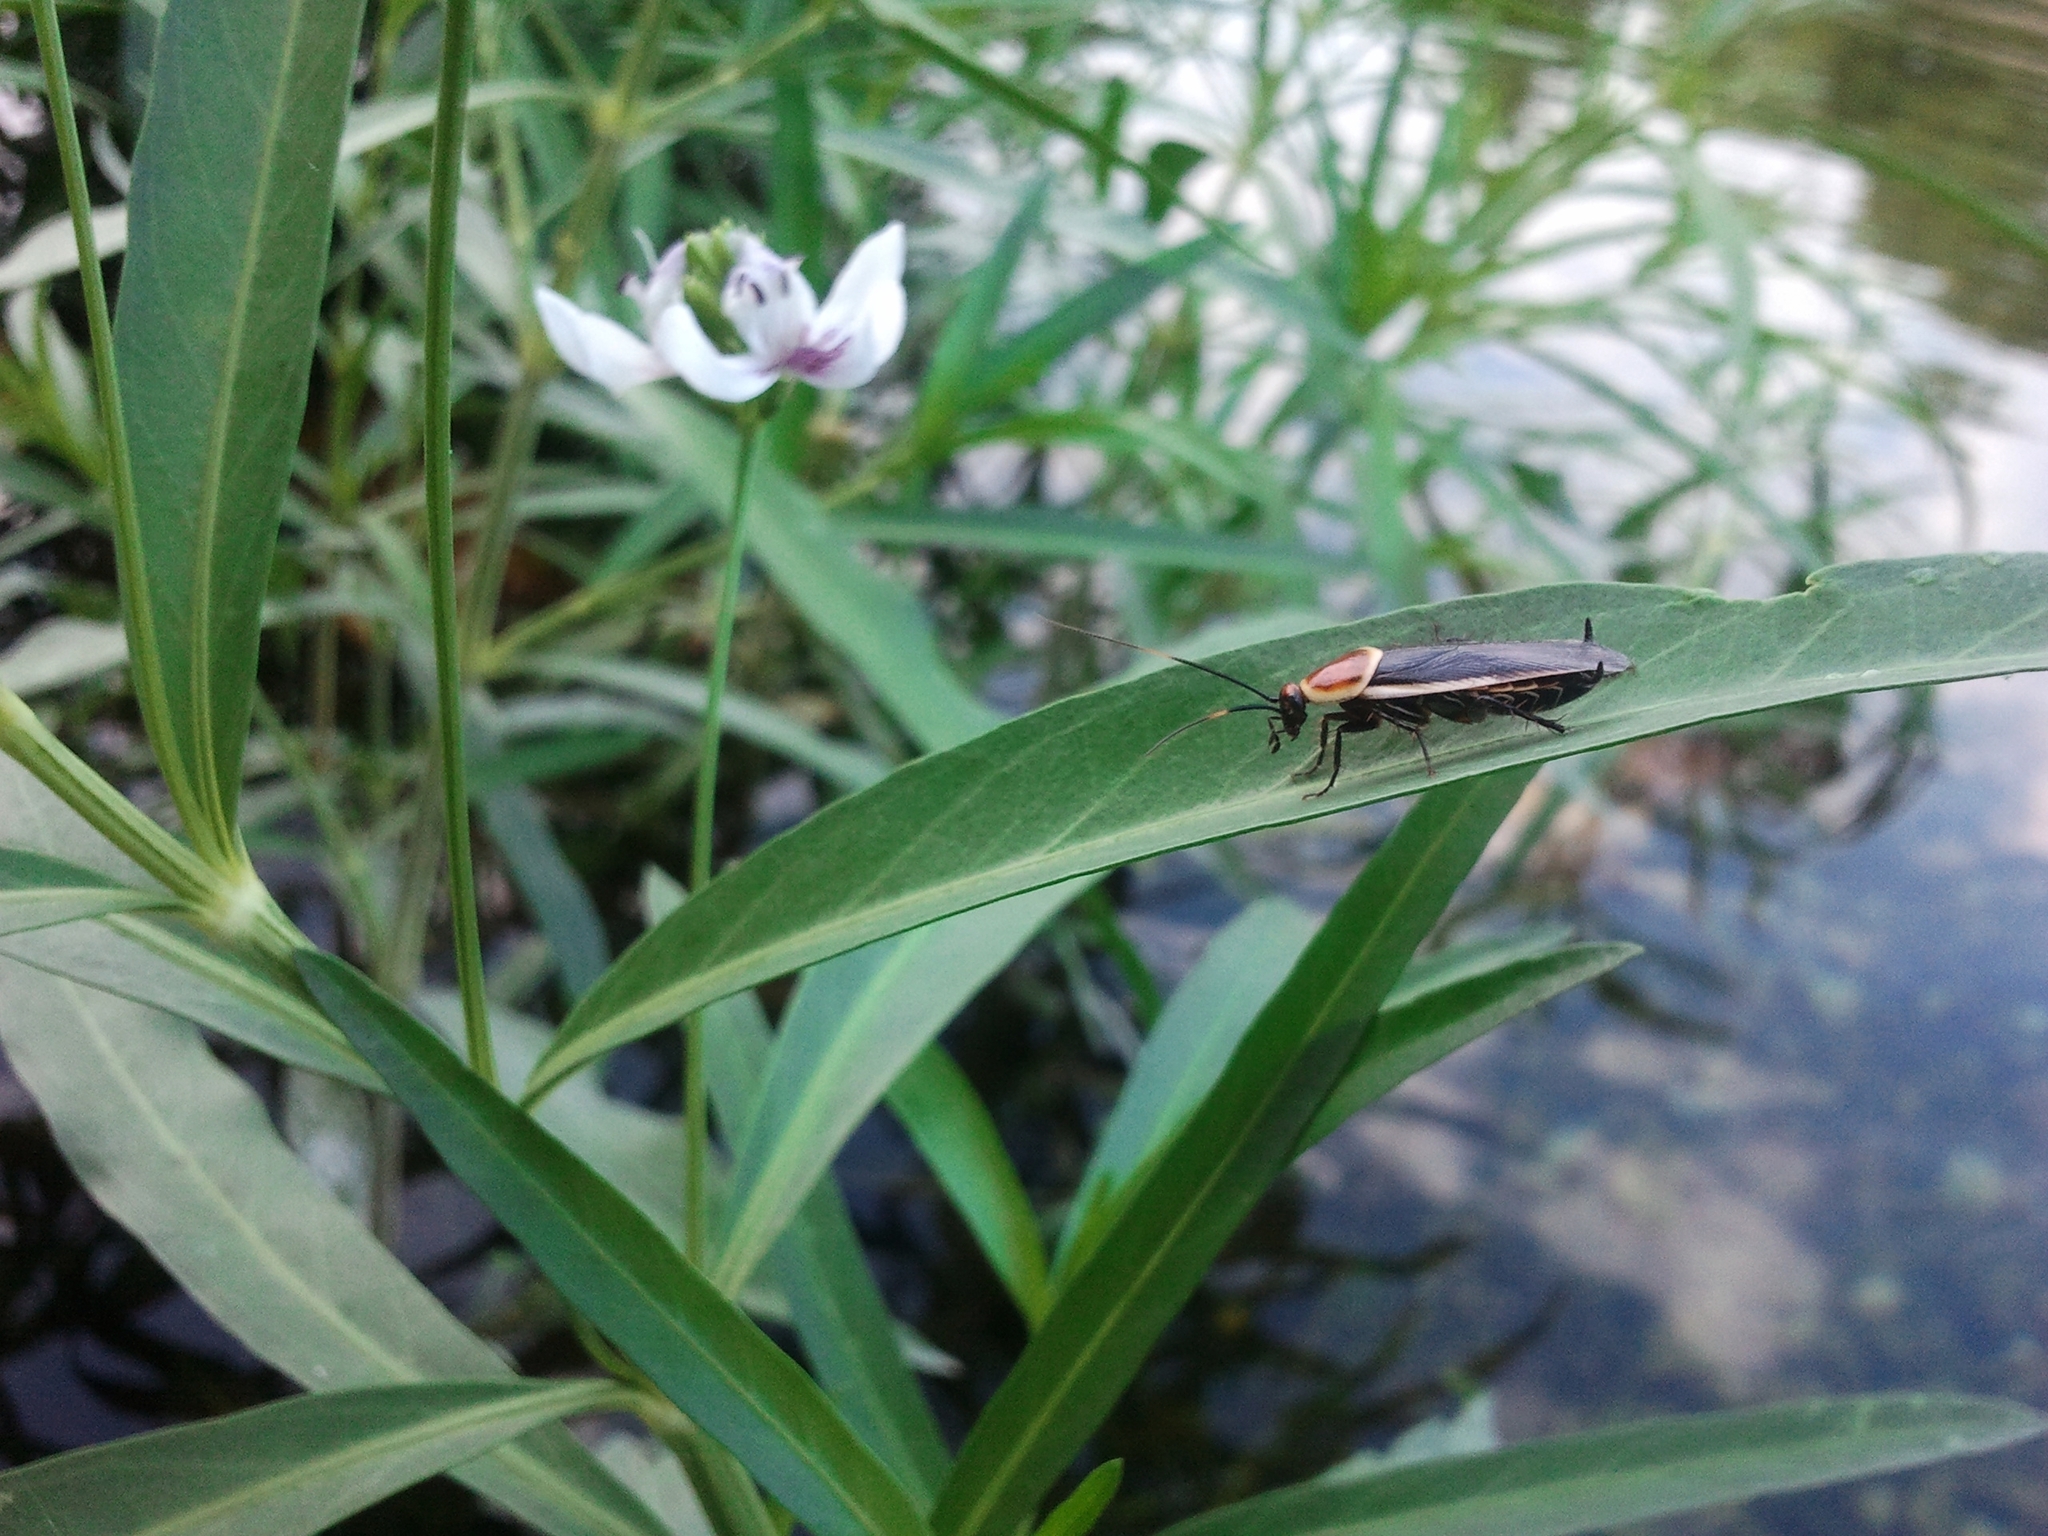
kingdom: Animalia
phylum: Arthropoda
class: Insecta
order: Blattodea
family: Ectobiidae
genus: Pseudomops
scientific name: Pseudomops septentrionalis
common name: Pale-bordered field cockroach
